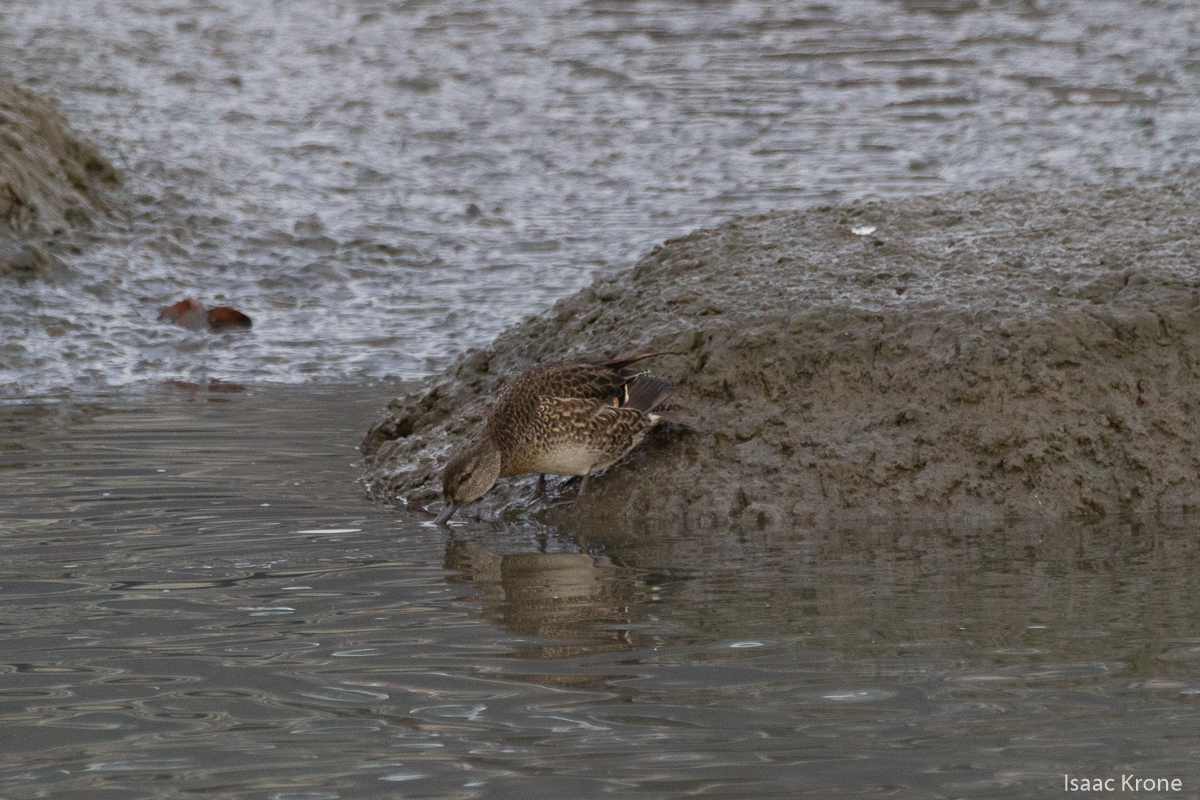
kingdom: Animalia
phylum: Chordata
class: Aves
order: Anseriformes
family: Anatidae
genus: Anas
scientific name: Anas crecca
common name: Eurasian teal
